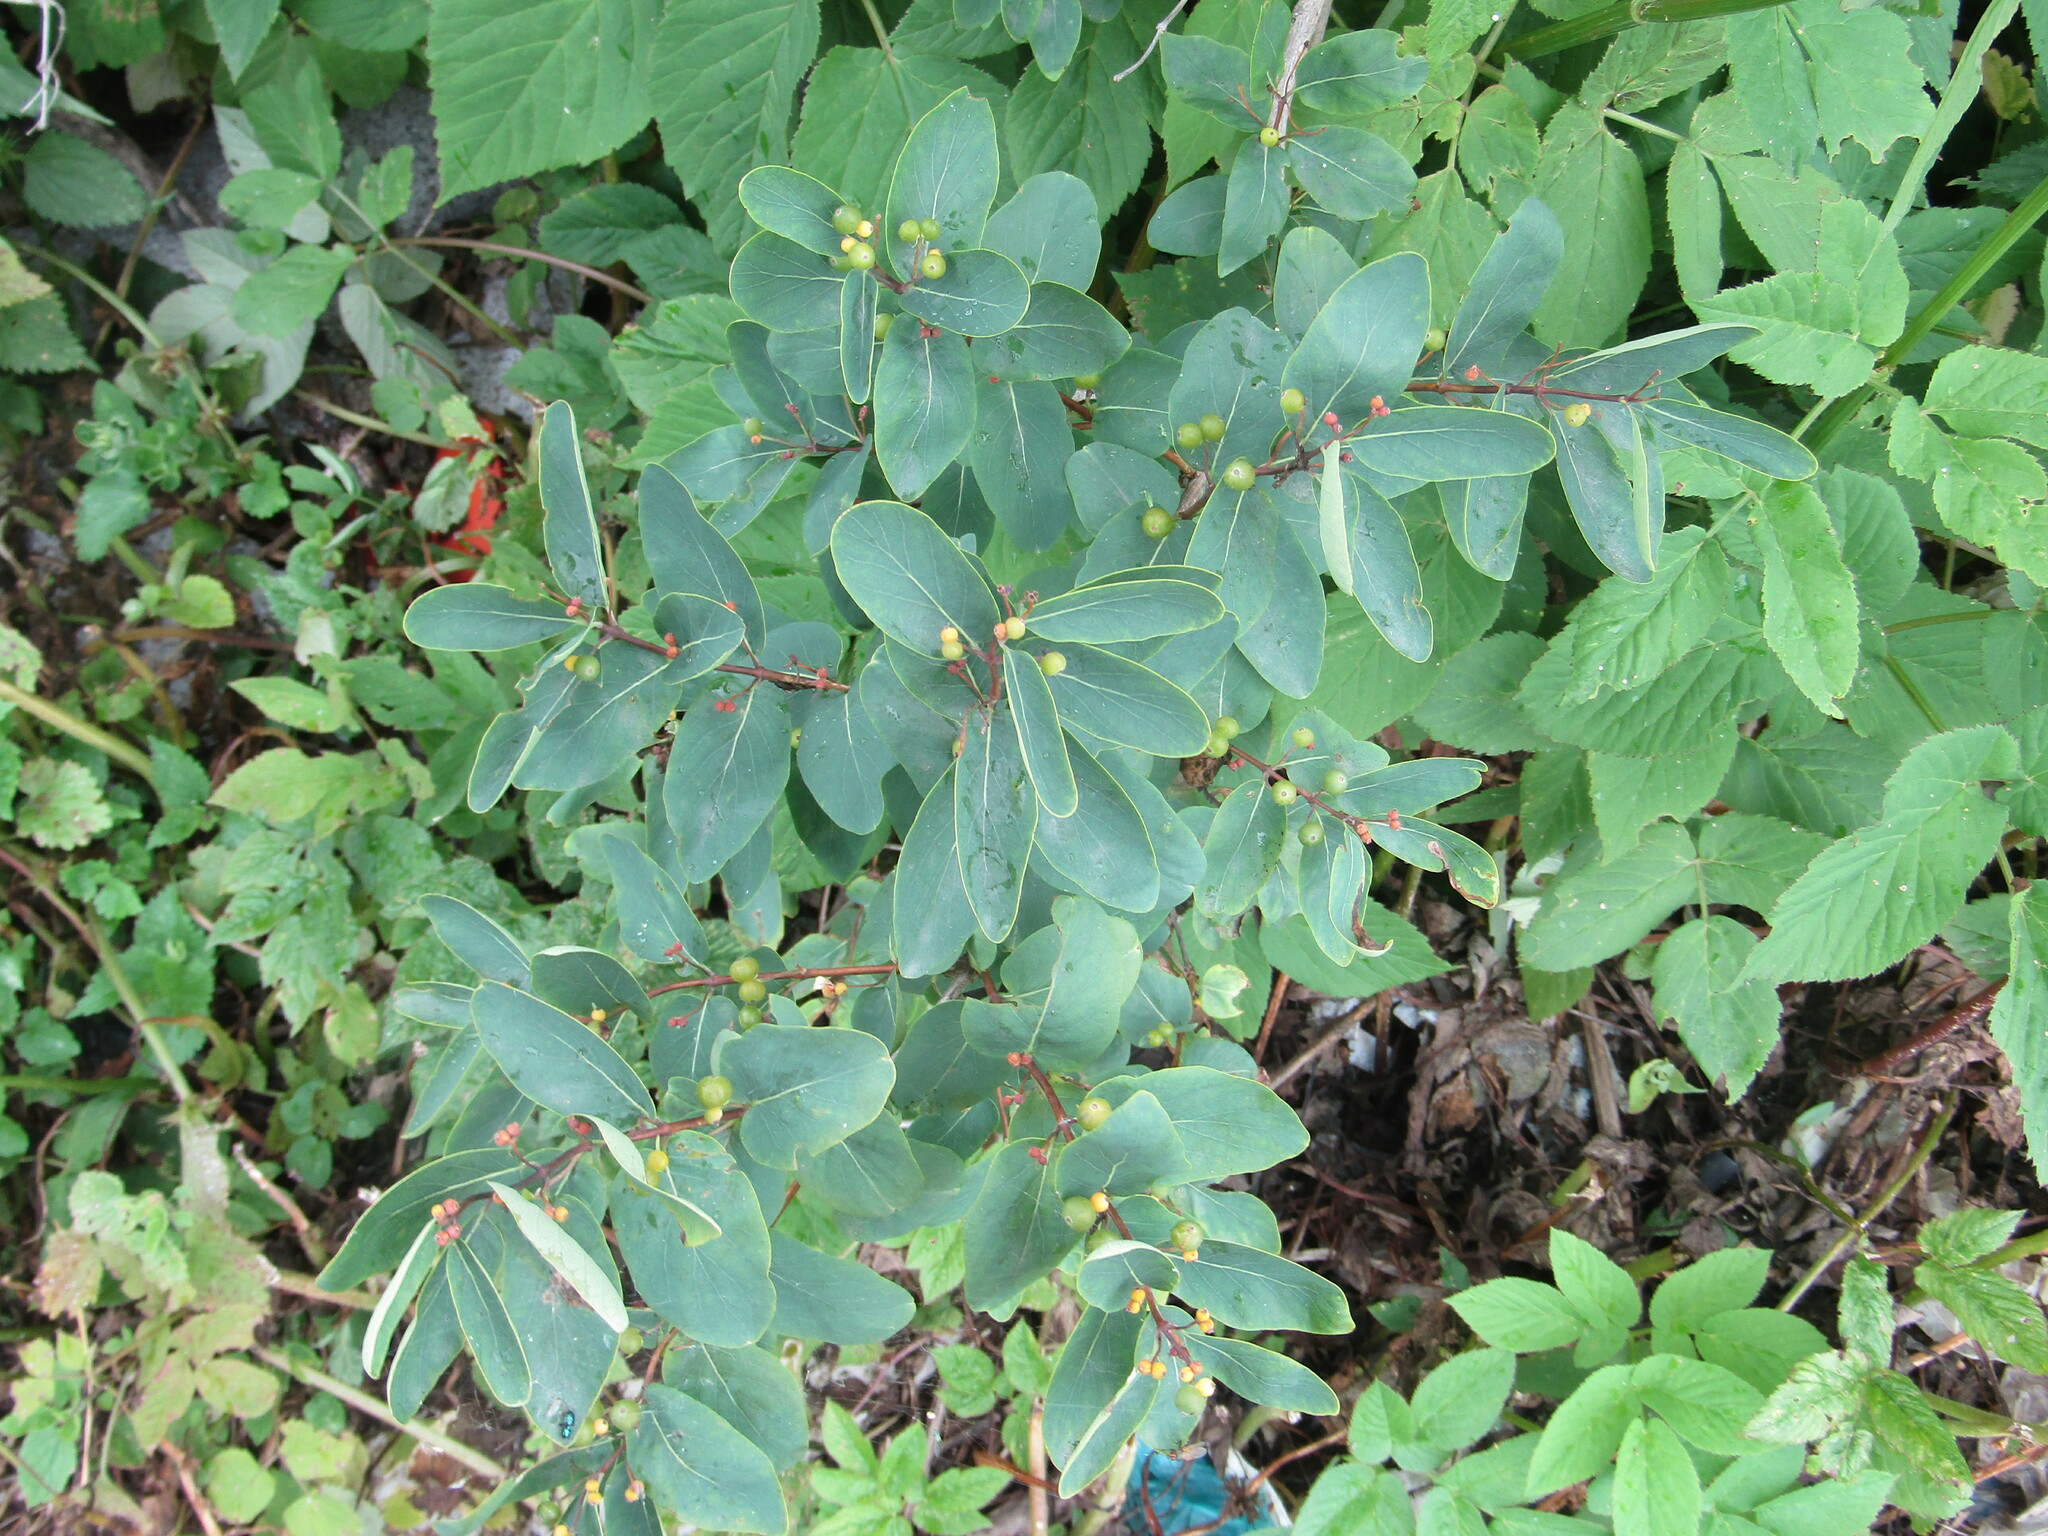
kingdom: Plantae
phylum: Tracheophyta
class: Magnoliopsida
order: Dipsacales
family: Caprifoliaceae
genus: Lonicera
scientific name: Lonicera tatarica
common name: Tatarian honeysuckle
